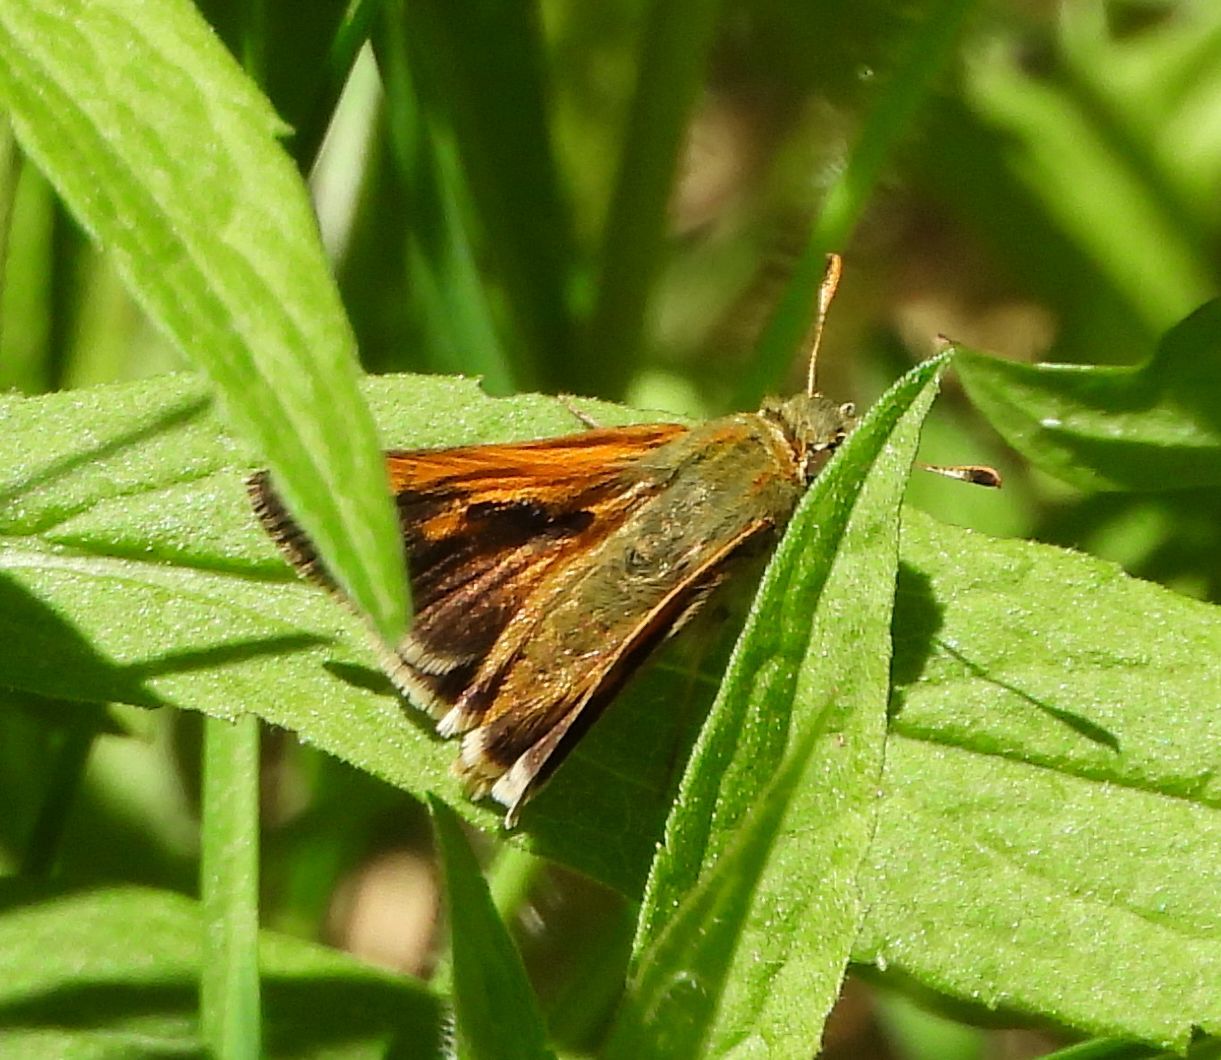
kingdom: Animalia
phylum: Arthropoda
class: Insecta
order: Lepidoptera
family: Hesperiidae
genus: Polites
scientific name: Polites themistocles
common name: Tawny-edged skipper
